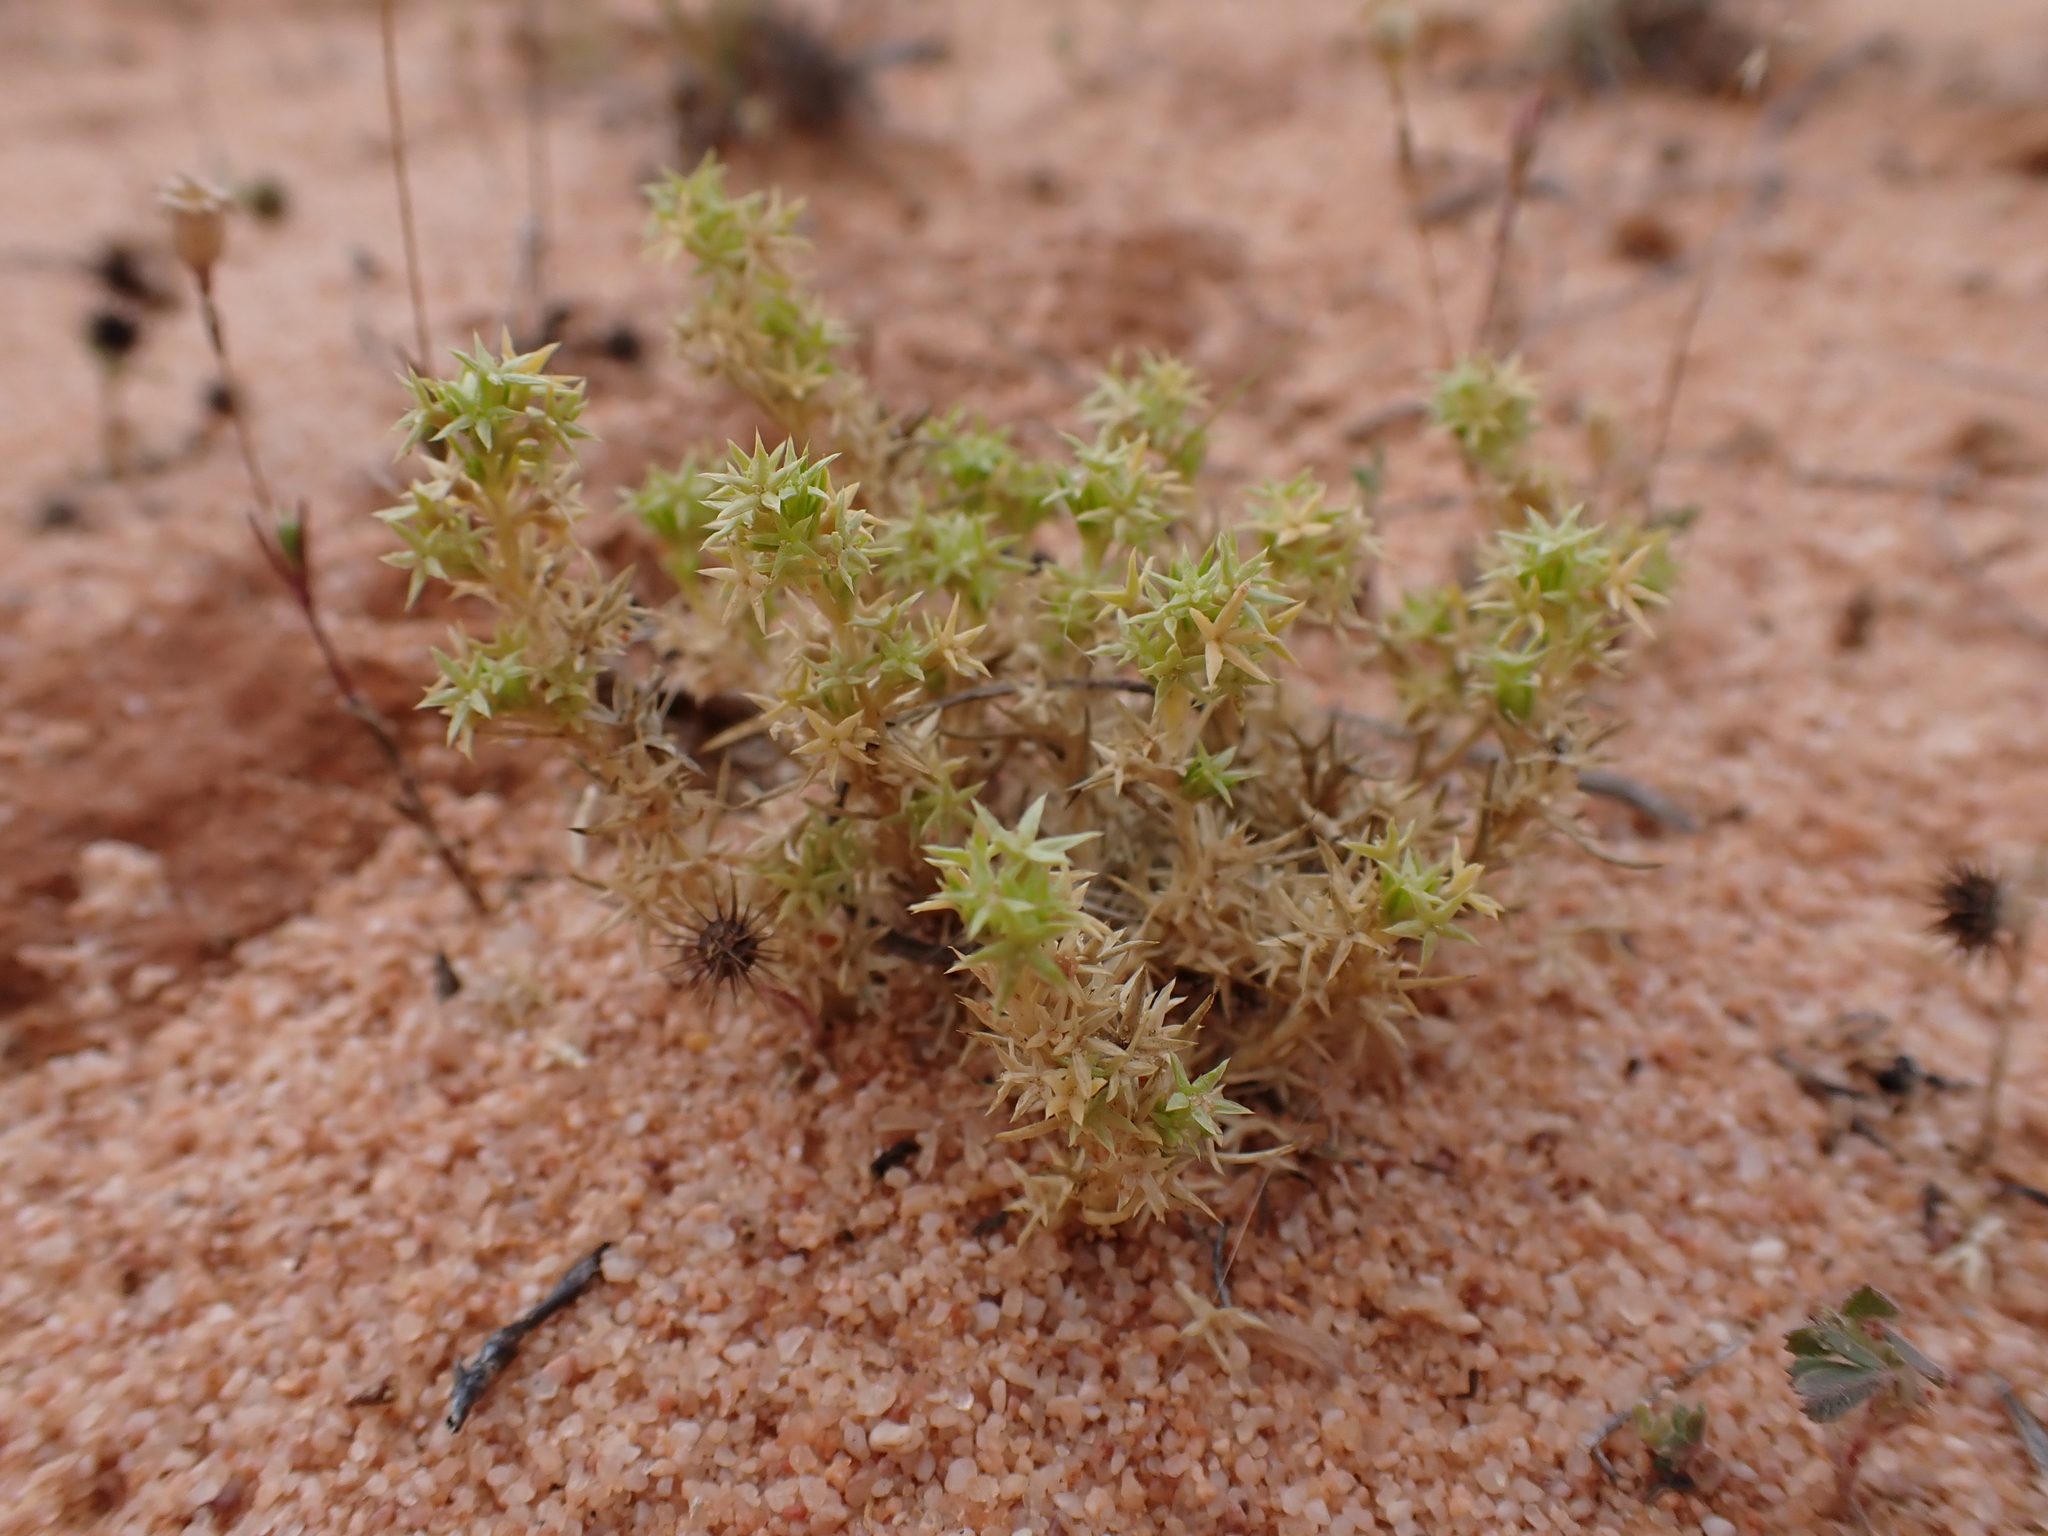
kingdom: Plantae
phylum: Tracheophyta
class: Magnoliopsida
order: Caryophyllales
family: Caryophyllaceae
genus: Scleranthus
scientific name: Scleranthus minusculus
